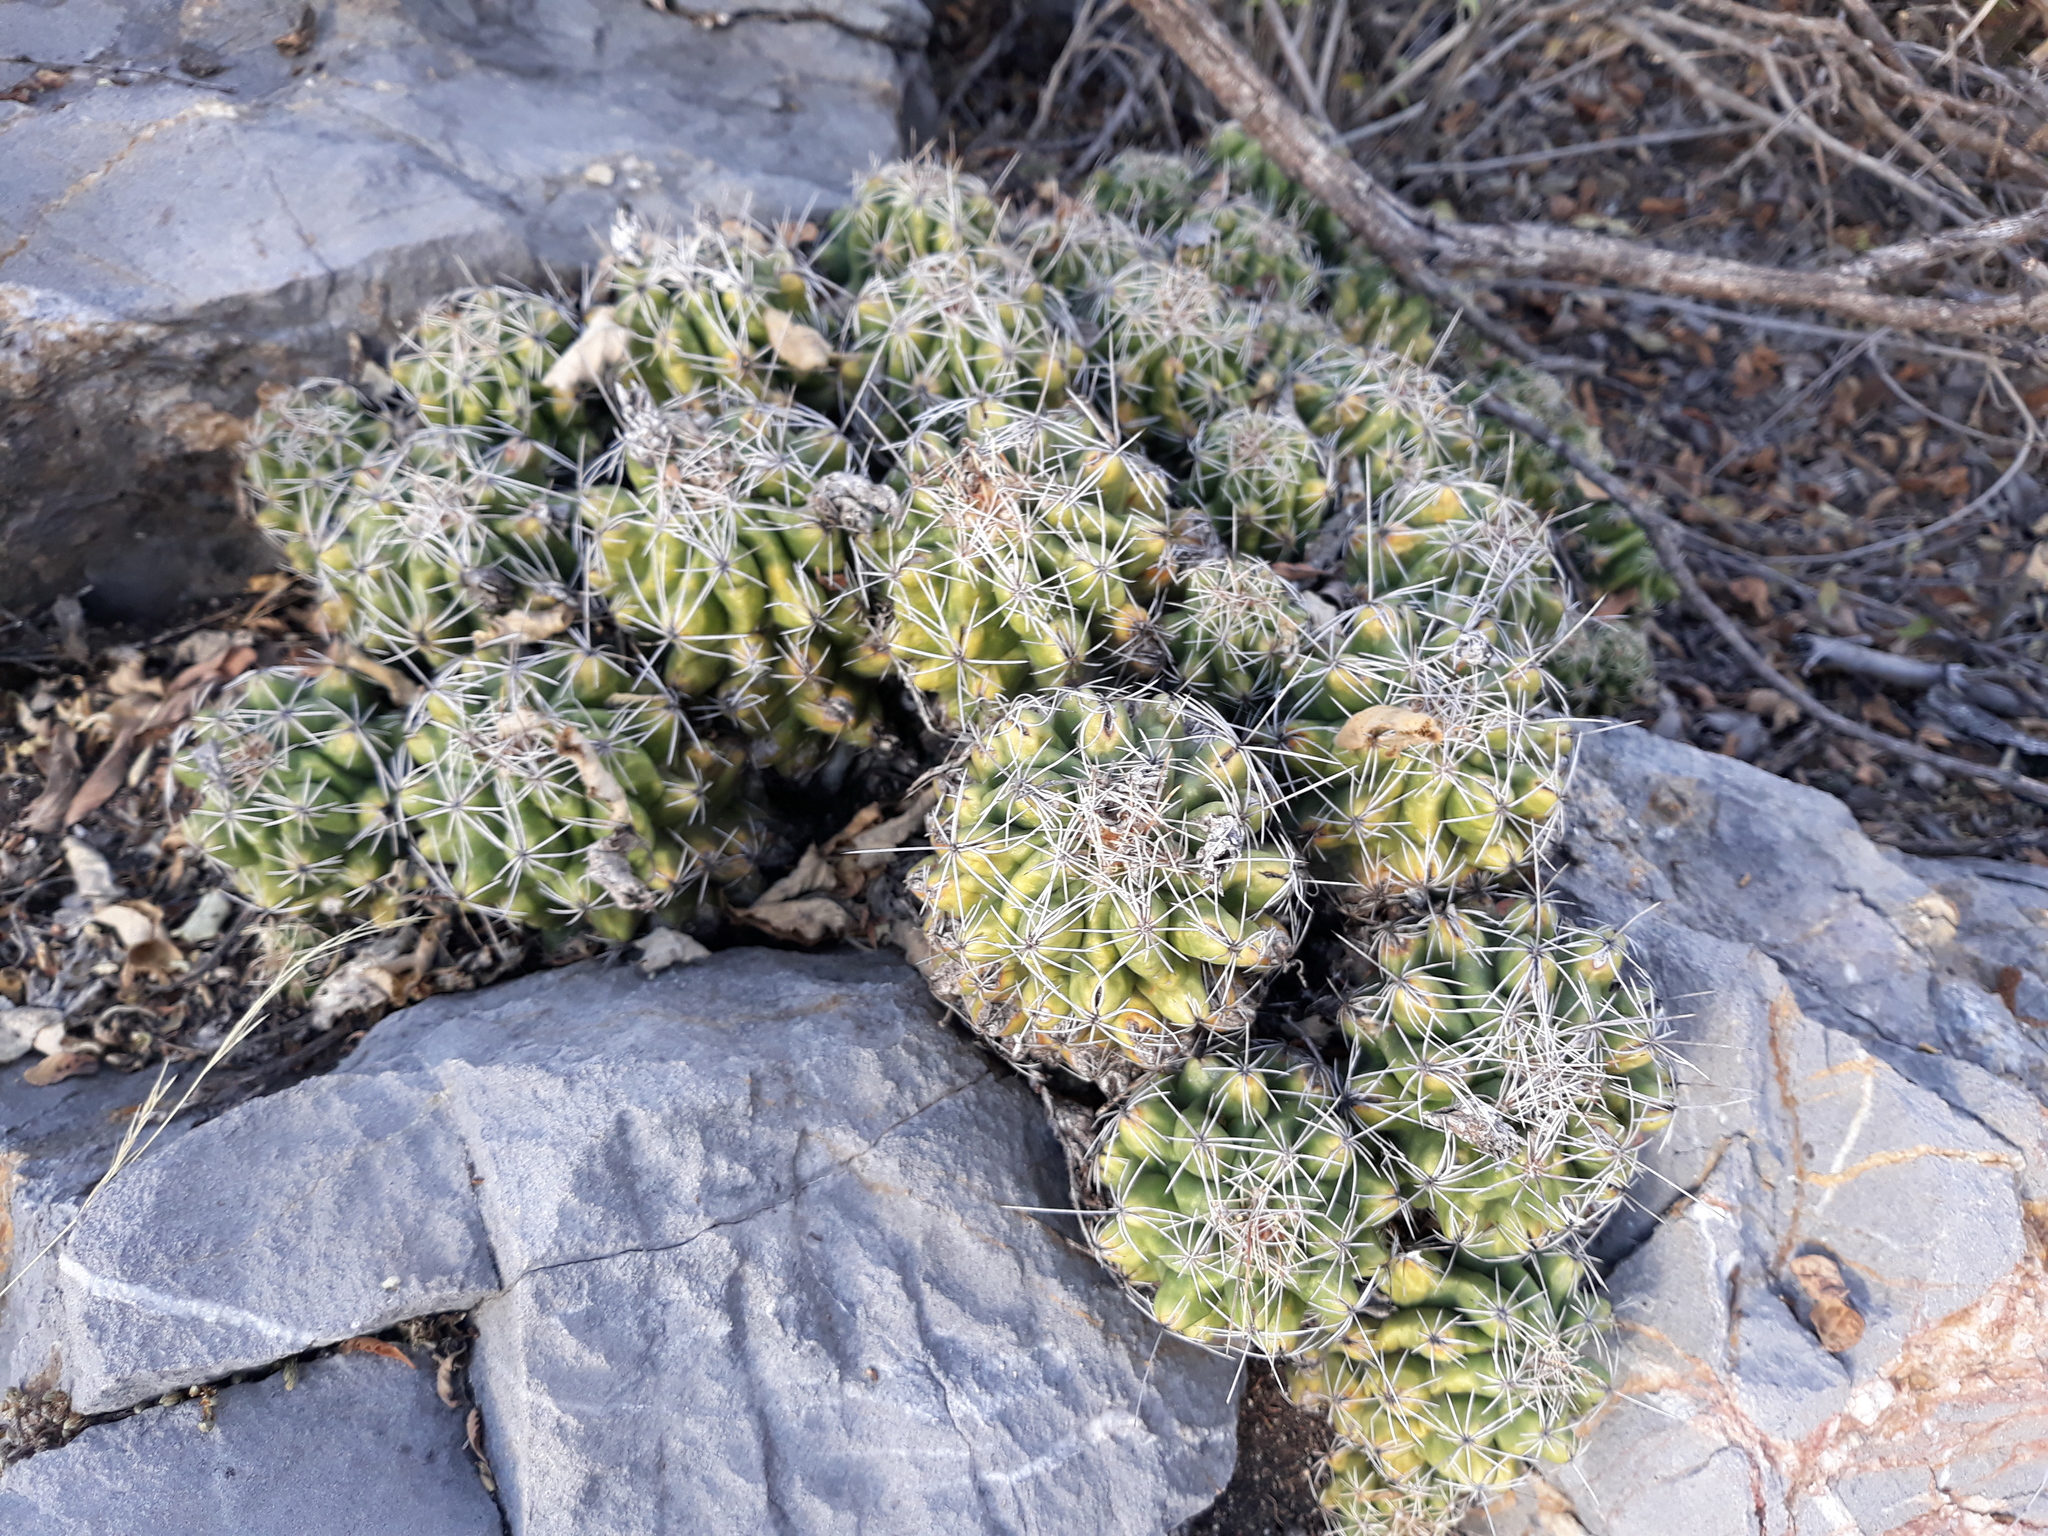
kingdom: Plantae
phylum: Tracheophyta
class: Magnoliopsida
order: Caryophyllales
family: Cactaceae
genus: Thelocactus
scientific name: Thelocactus leucacanthus
